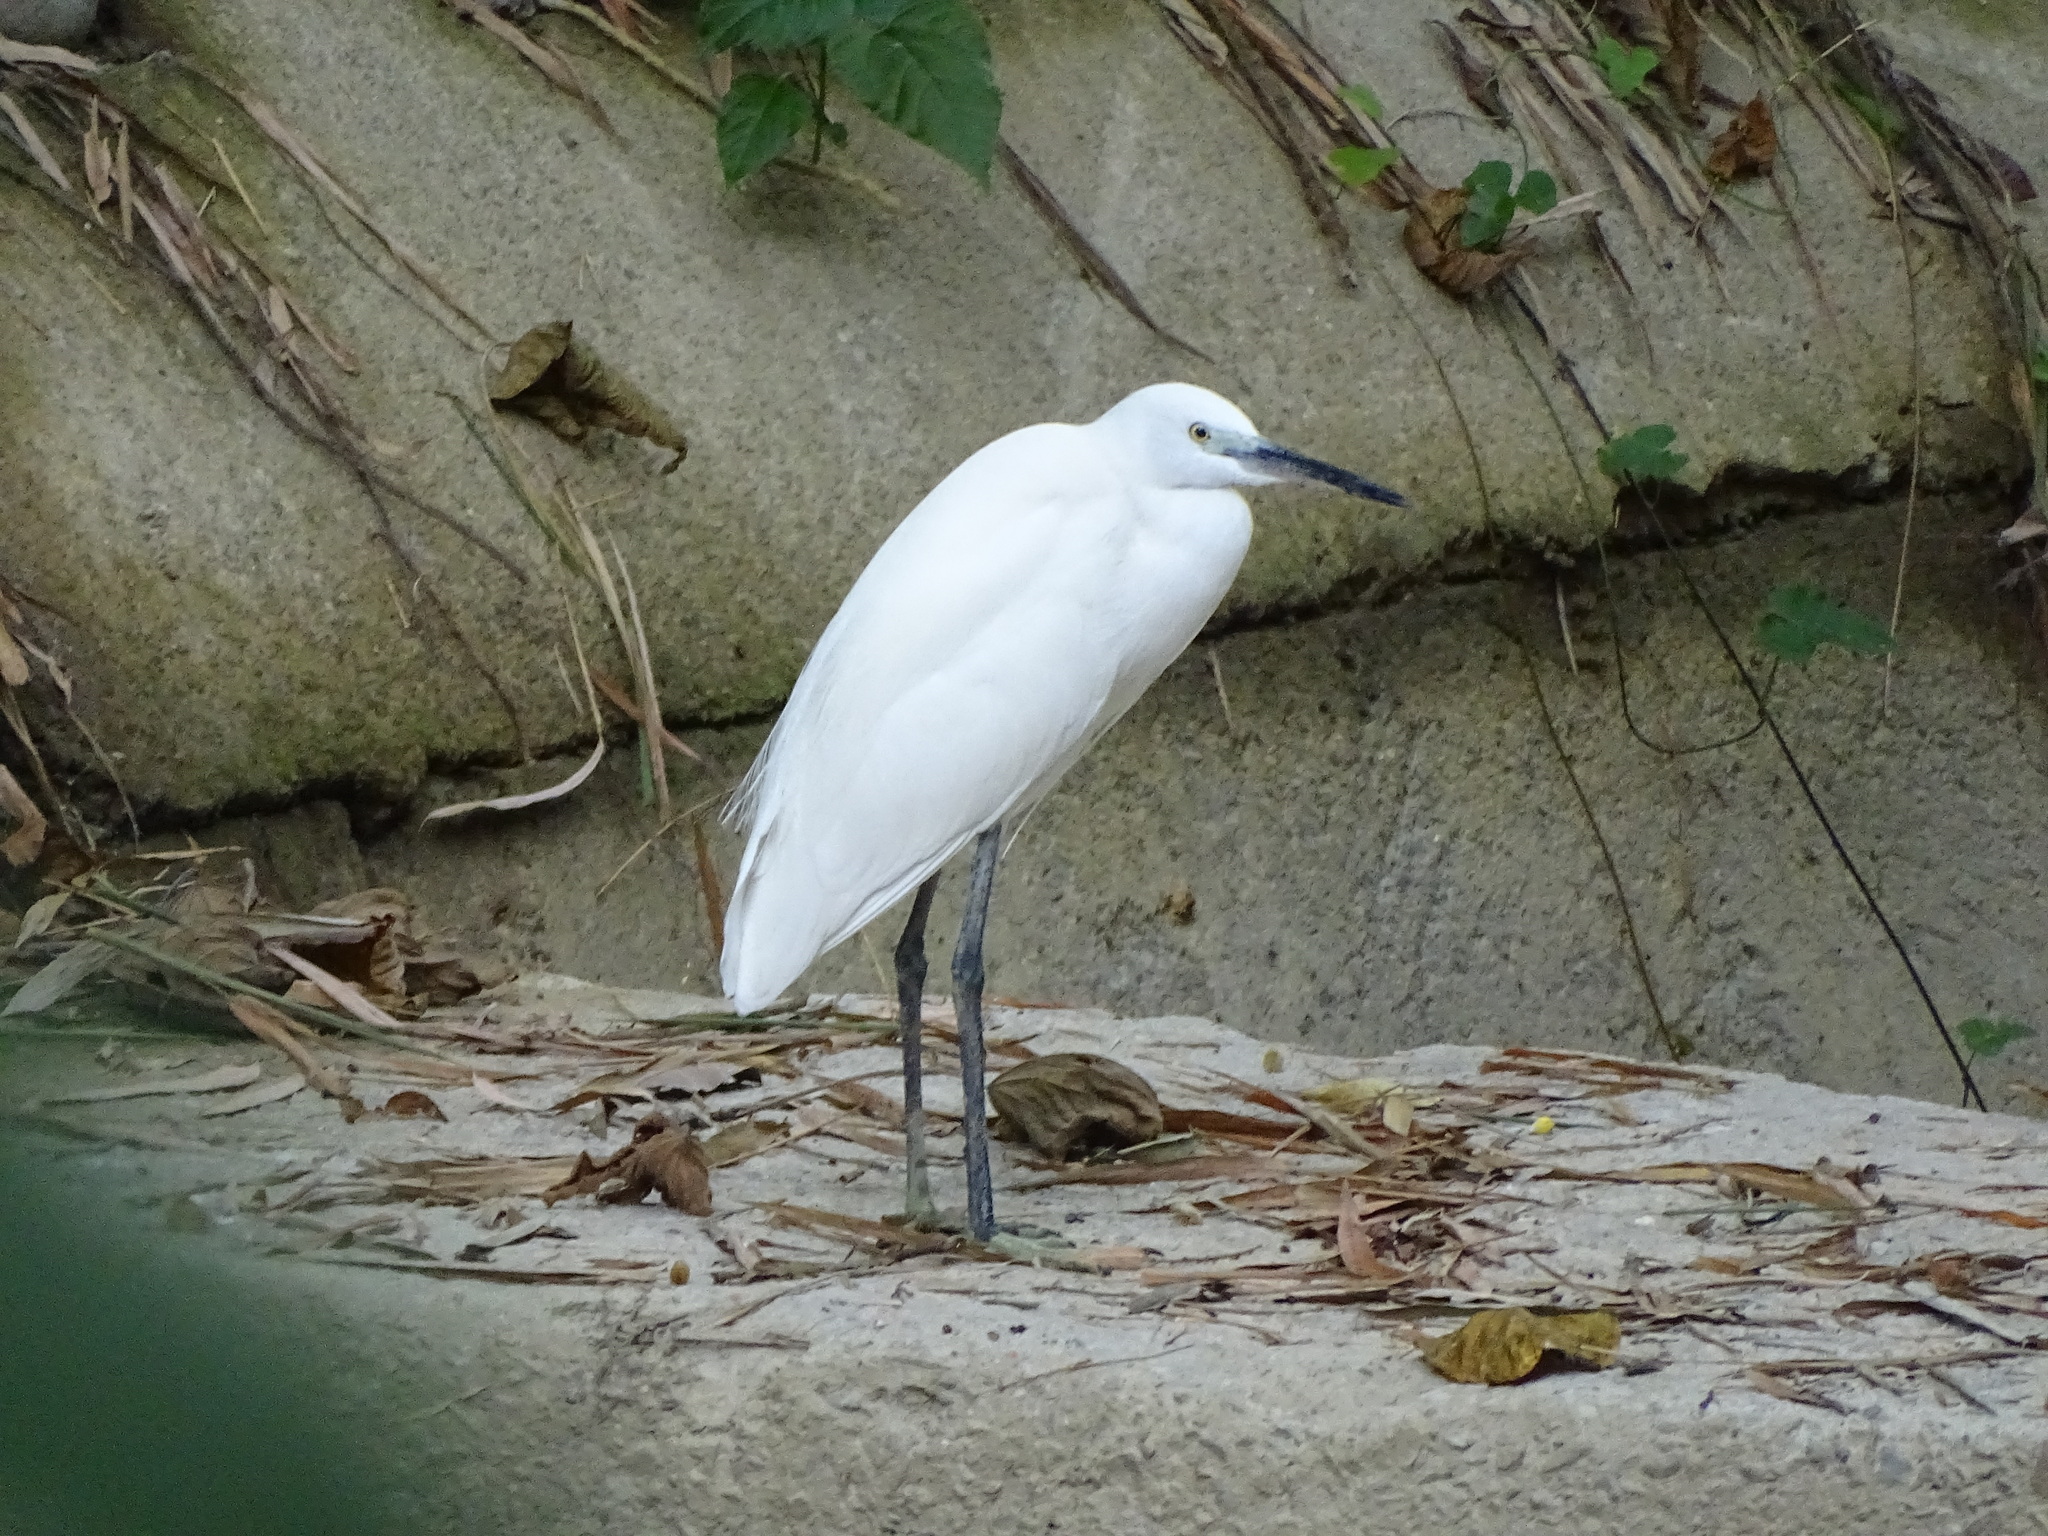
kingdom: Animalia
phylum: Chordata
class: Aves
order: Pelecaniformes
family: Ardeidae
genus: Egretta
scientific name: Egretta garzetta
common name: Little egret
